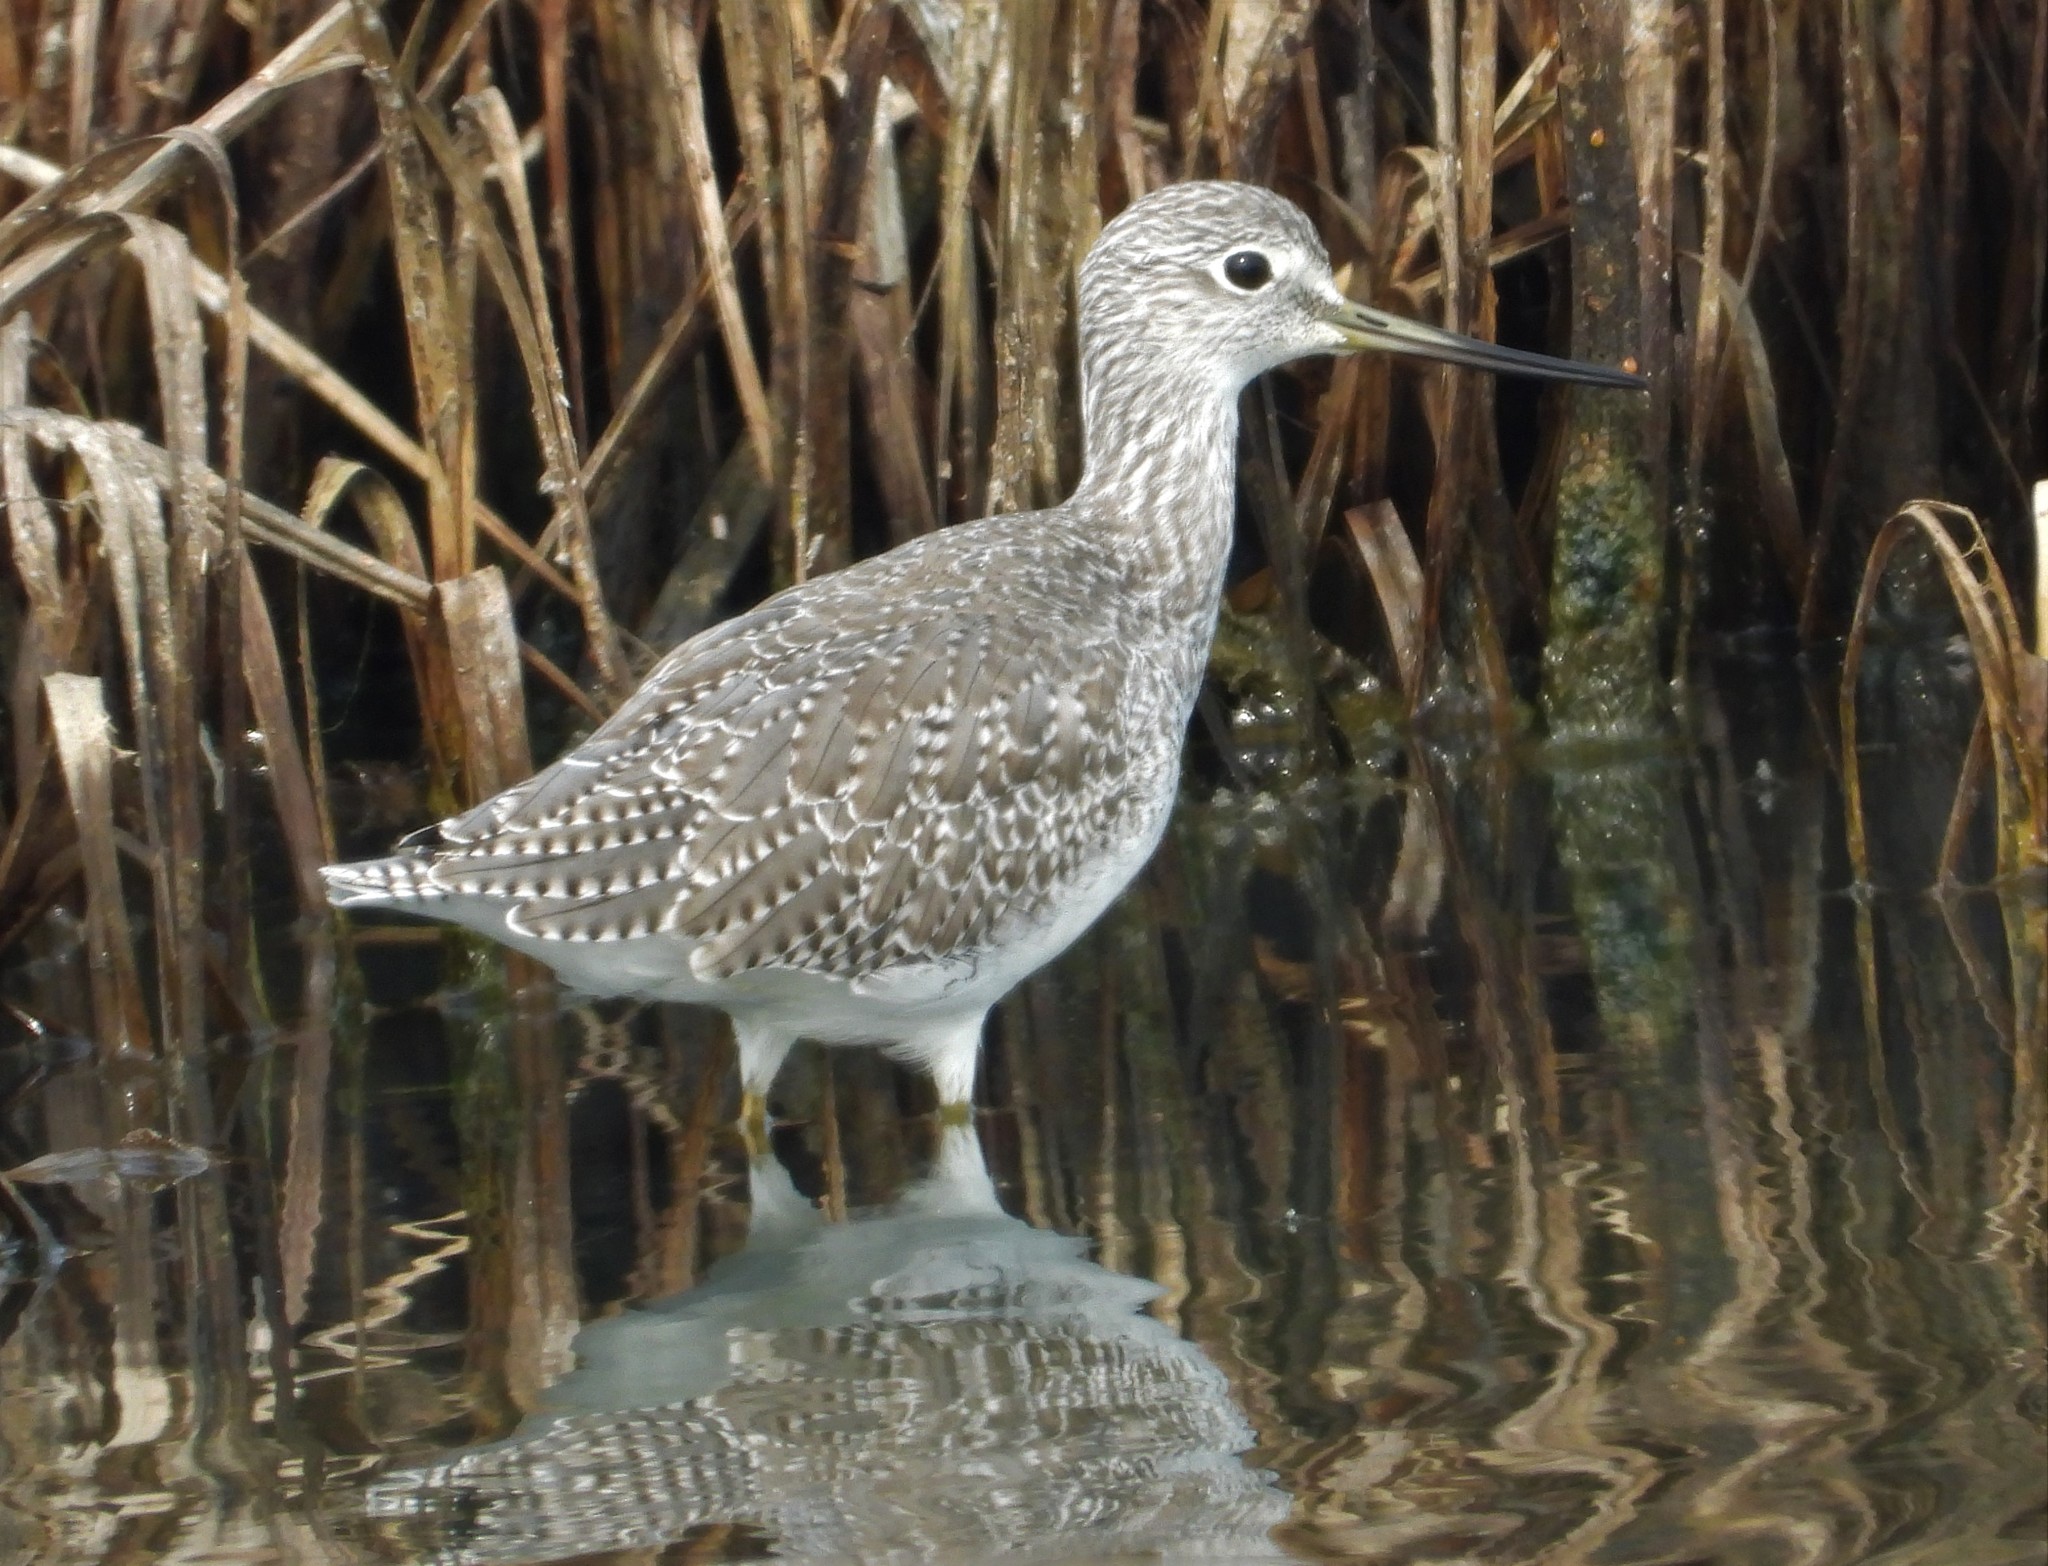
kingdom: Animalia
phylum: Chordata
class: Aves
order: Charadriiformes
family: Scolopacidae
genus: Tringa
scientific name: Tringa melanoleuca
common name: Greater yellowlegs
